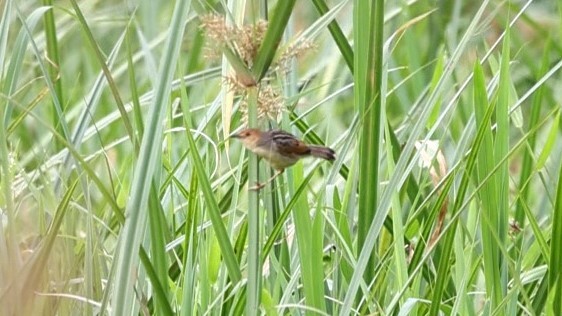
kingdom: Animalia
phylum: Chordata
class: Aves
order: Passeriformes
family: Cisticolidae
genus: Cisticola
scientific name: Cisticola marginatus
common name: Winding cisticola
